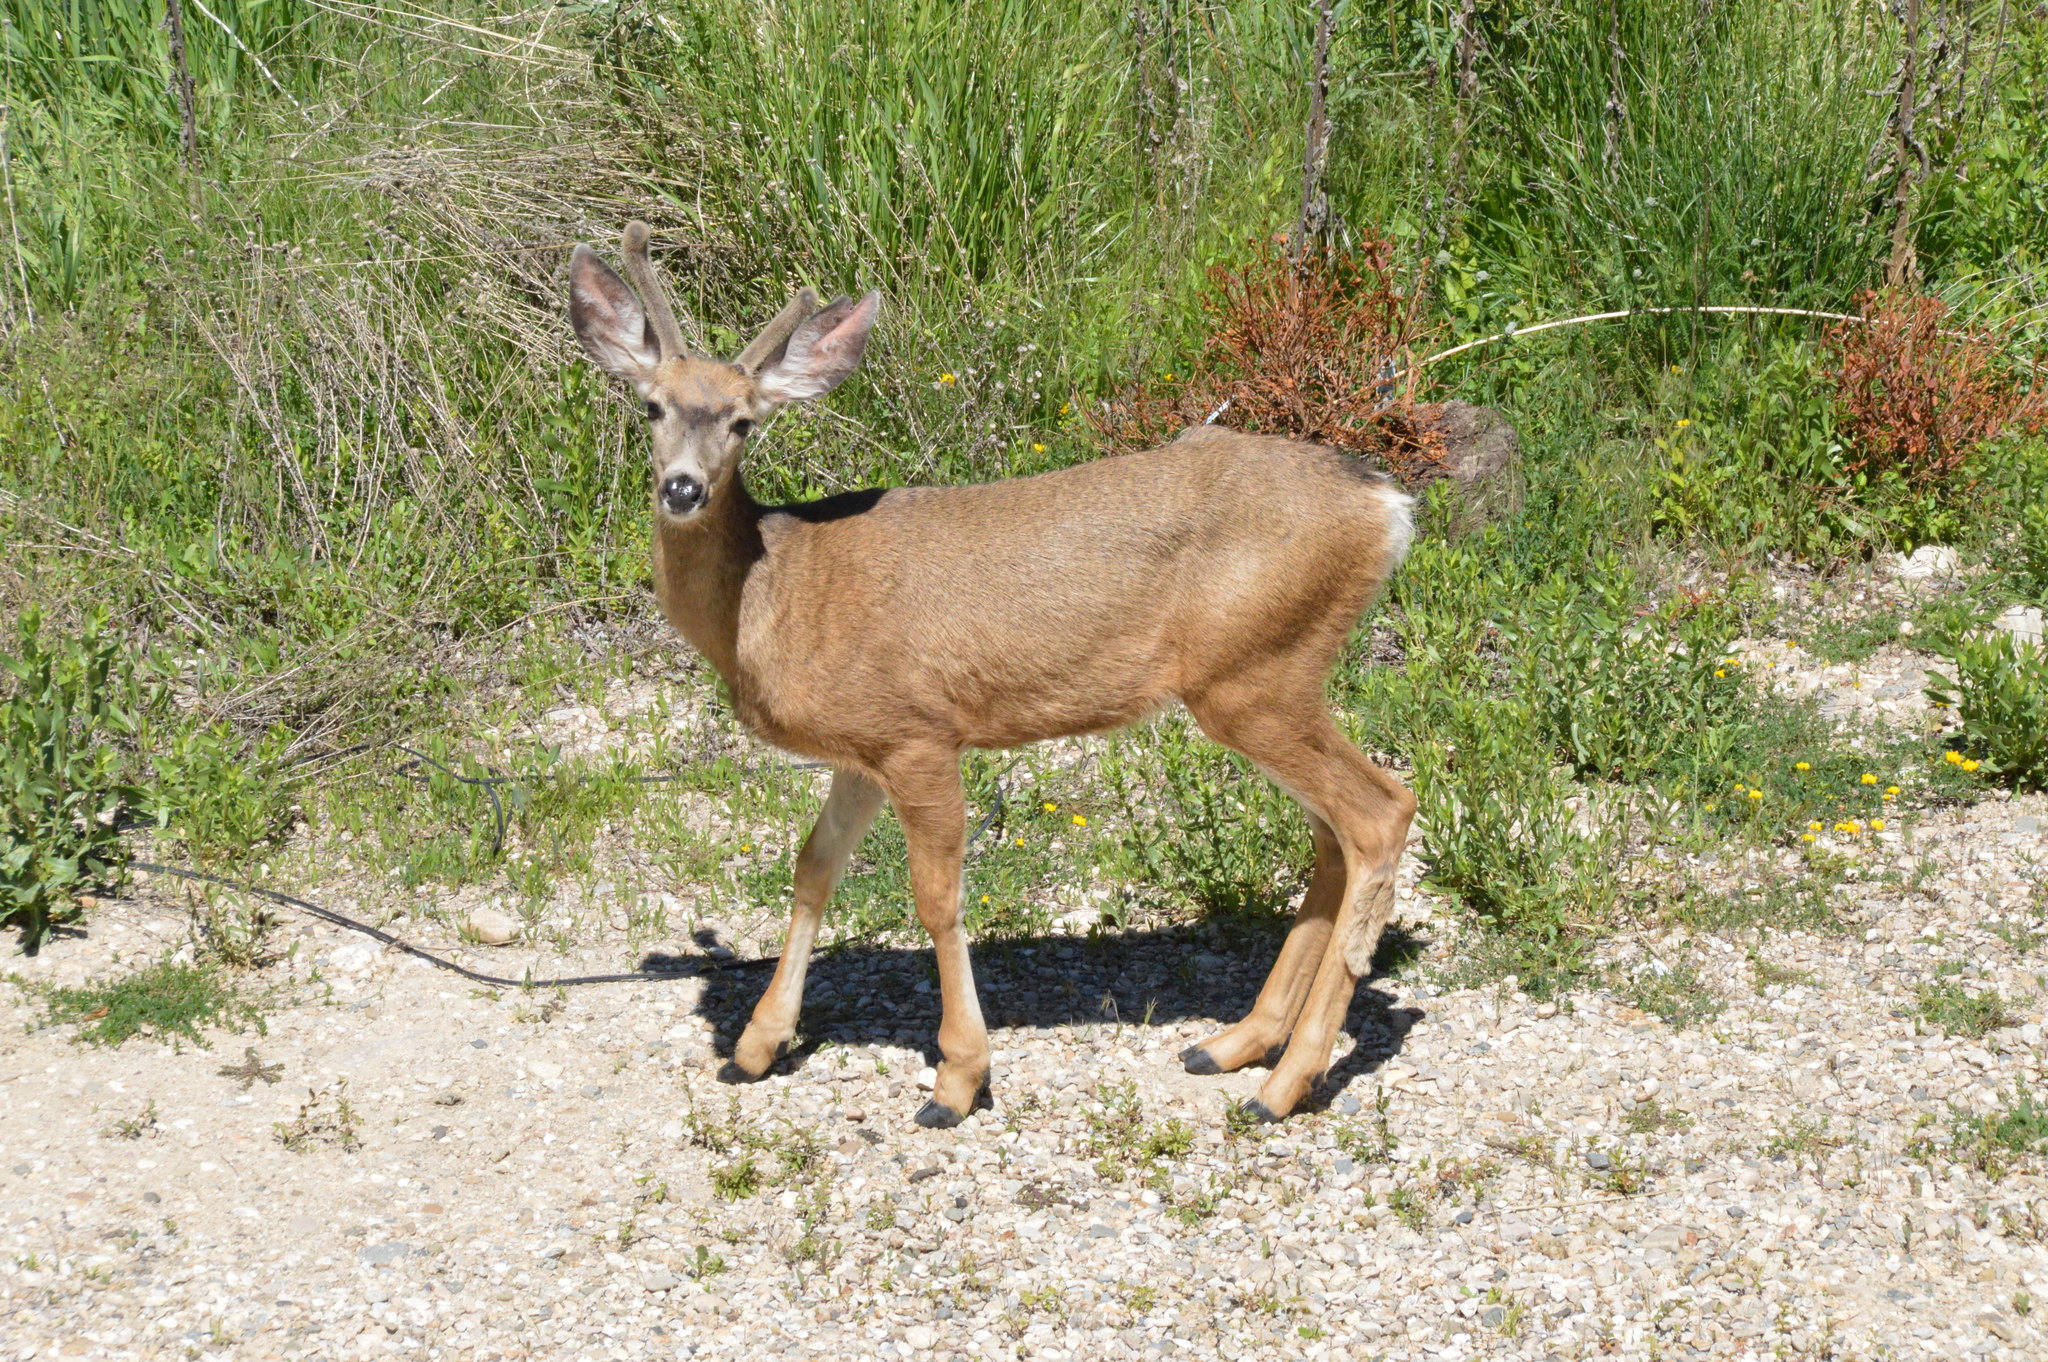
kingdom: Animalia
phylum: Chordata
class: Mammalia
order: Artiodactyla
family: Cervidae
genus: Odocoileus
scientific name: Odocoileus hemionus
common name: Mule deer
